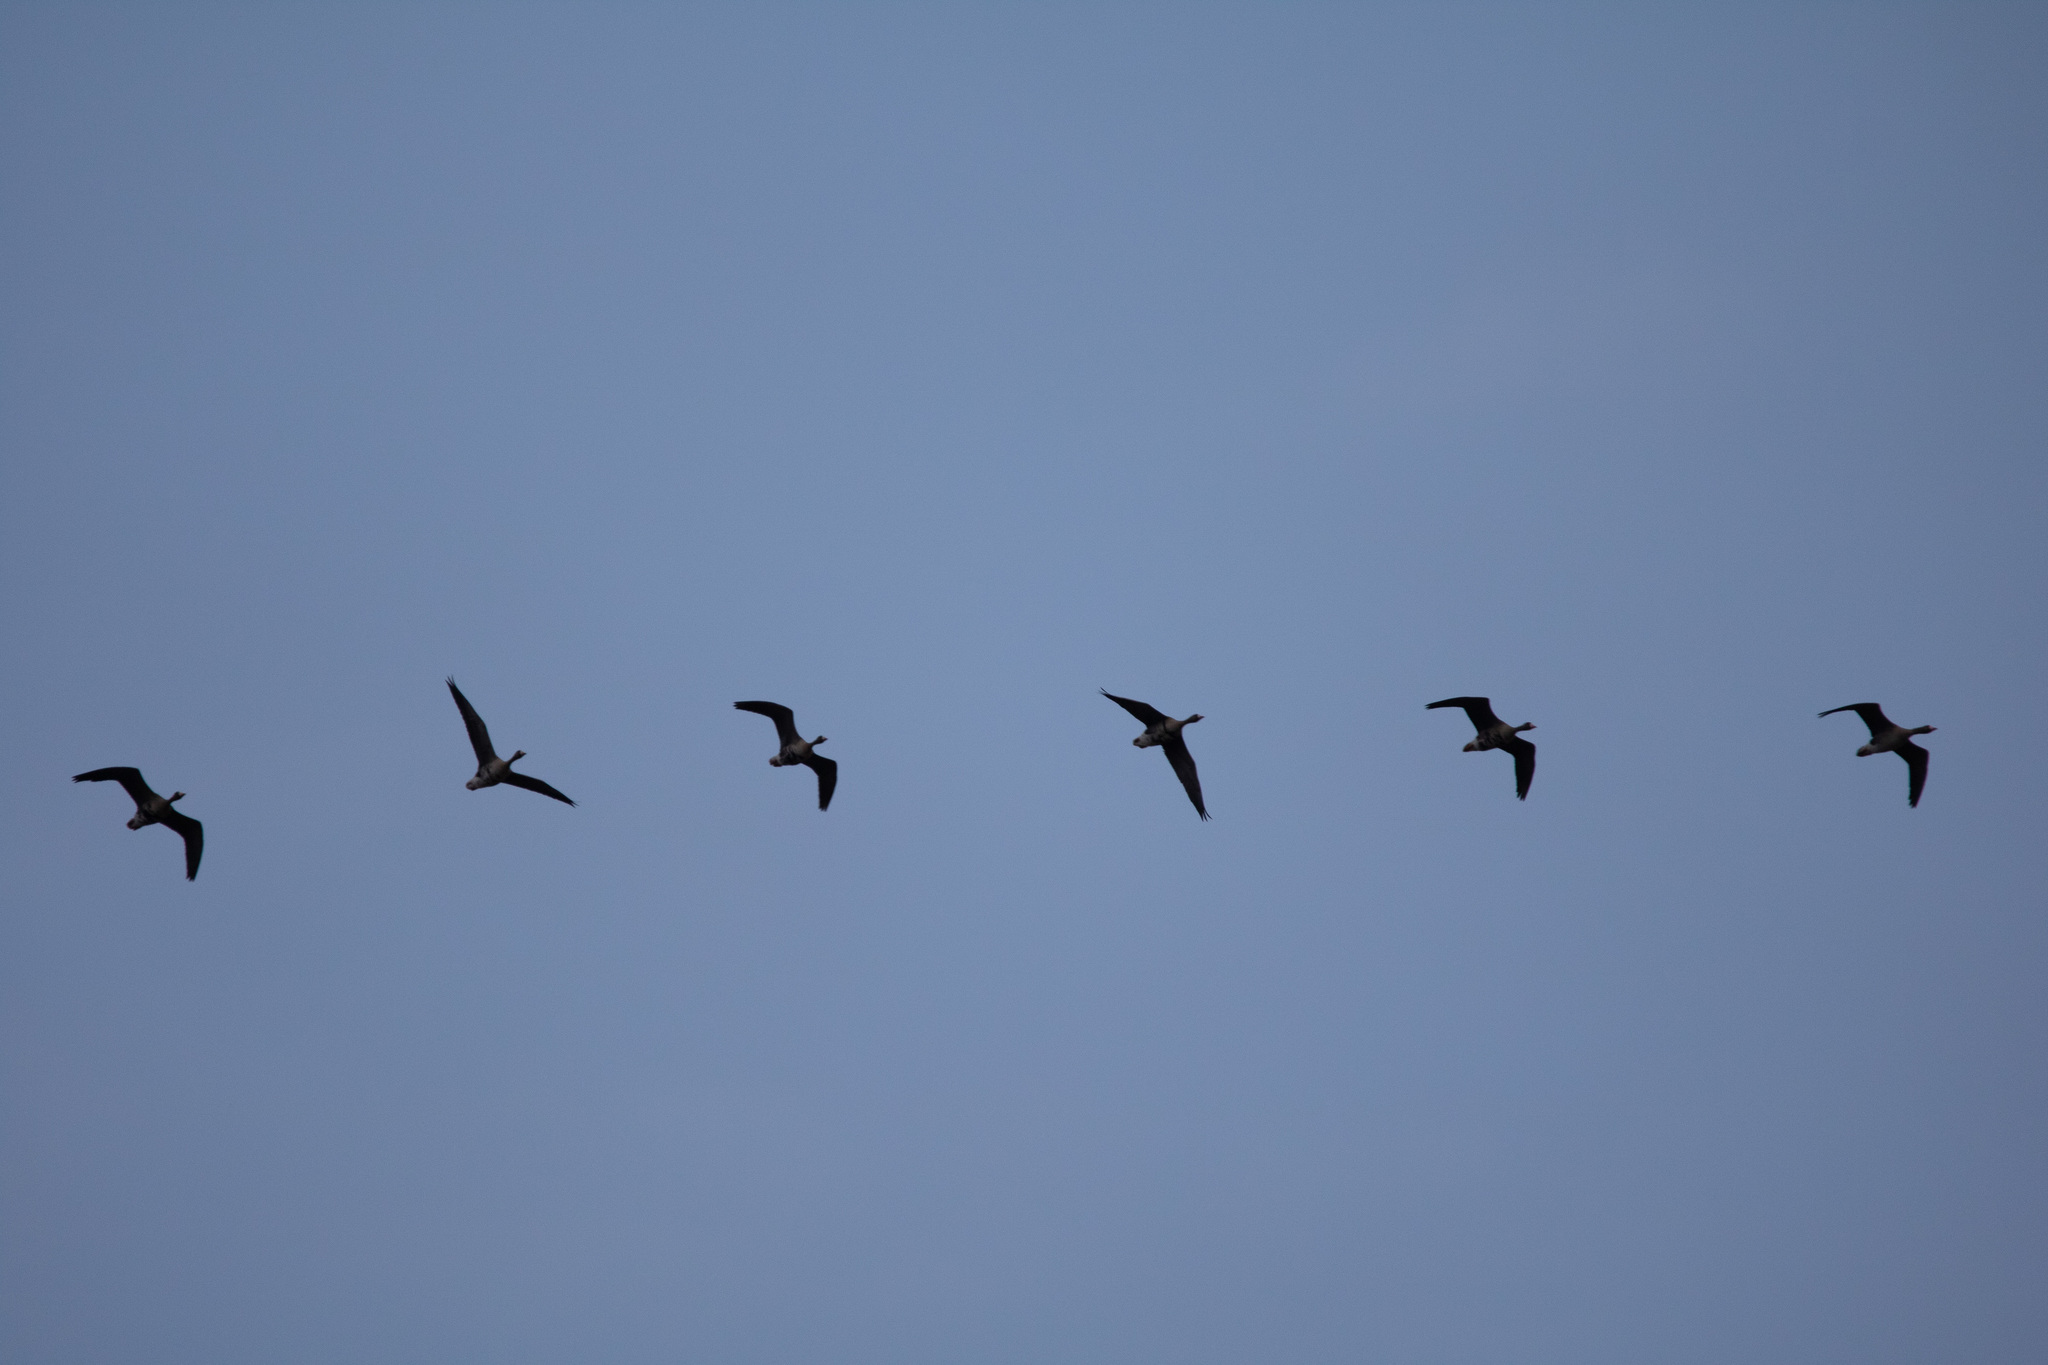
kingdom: Animalia
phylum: Chordata
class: Aves
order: Anseriformes
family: Anatidae
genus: Anser
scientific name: Anser albifrons
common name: Greater white-fronted goose
